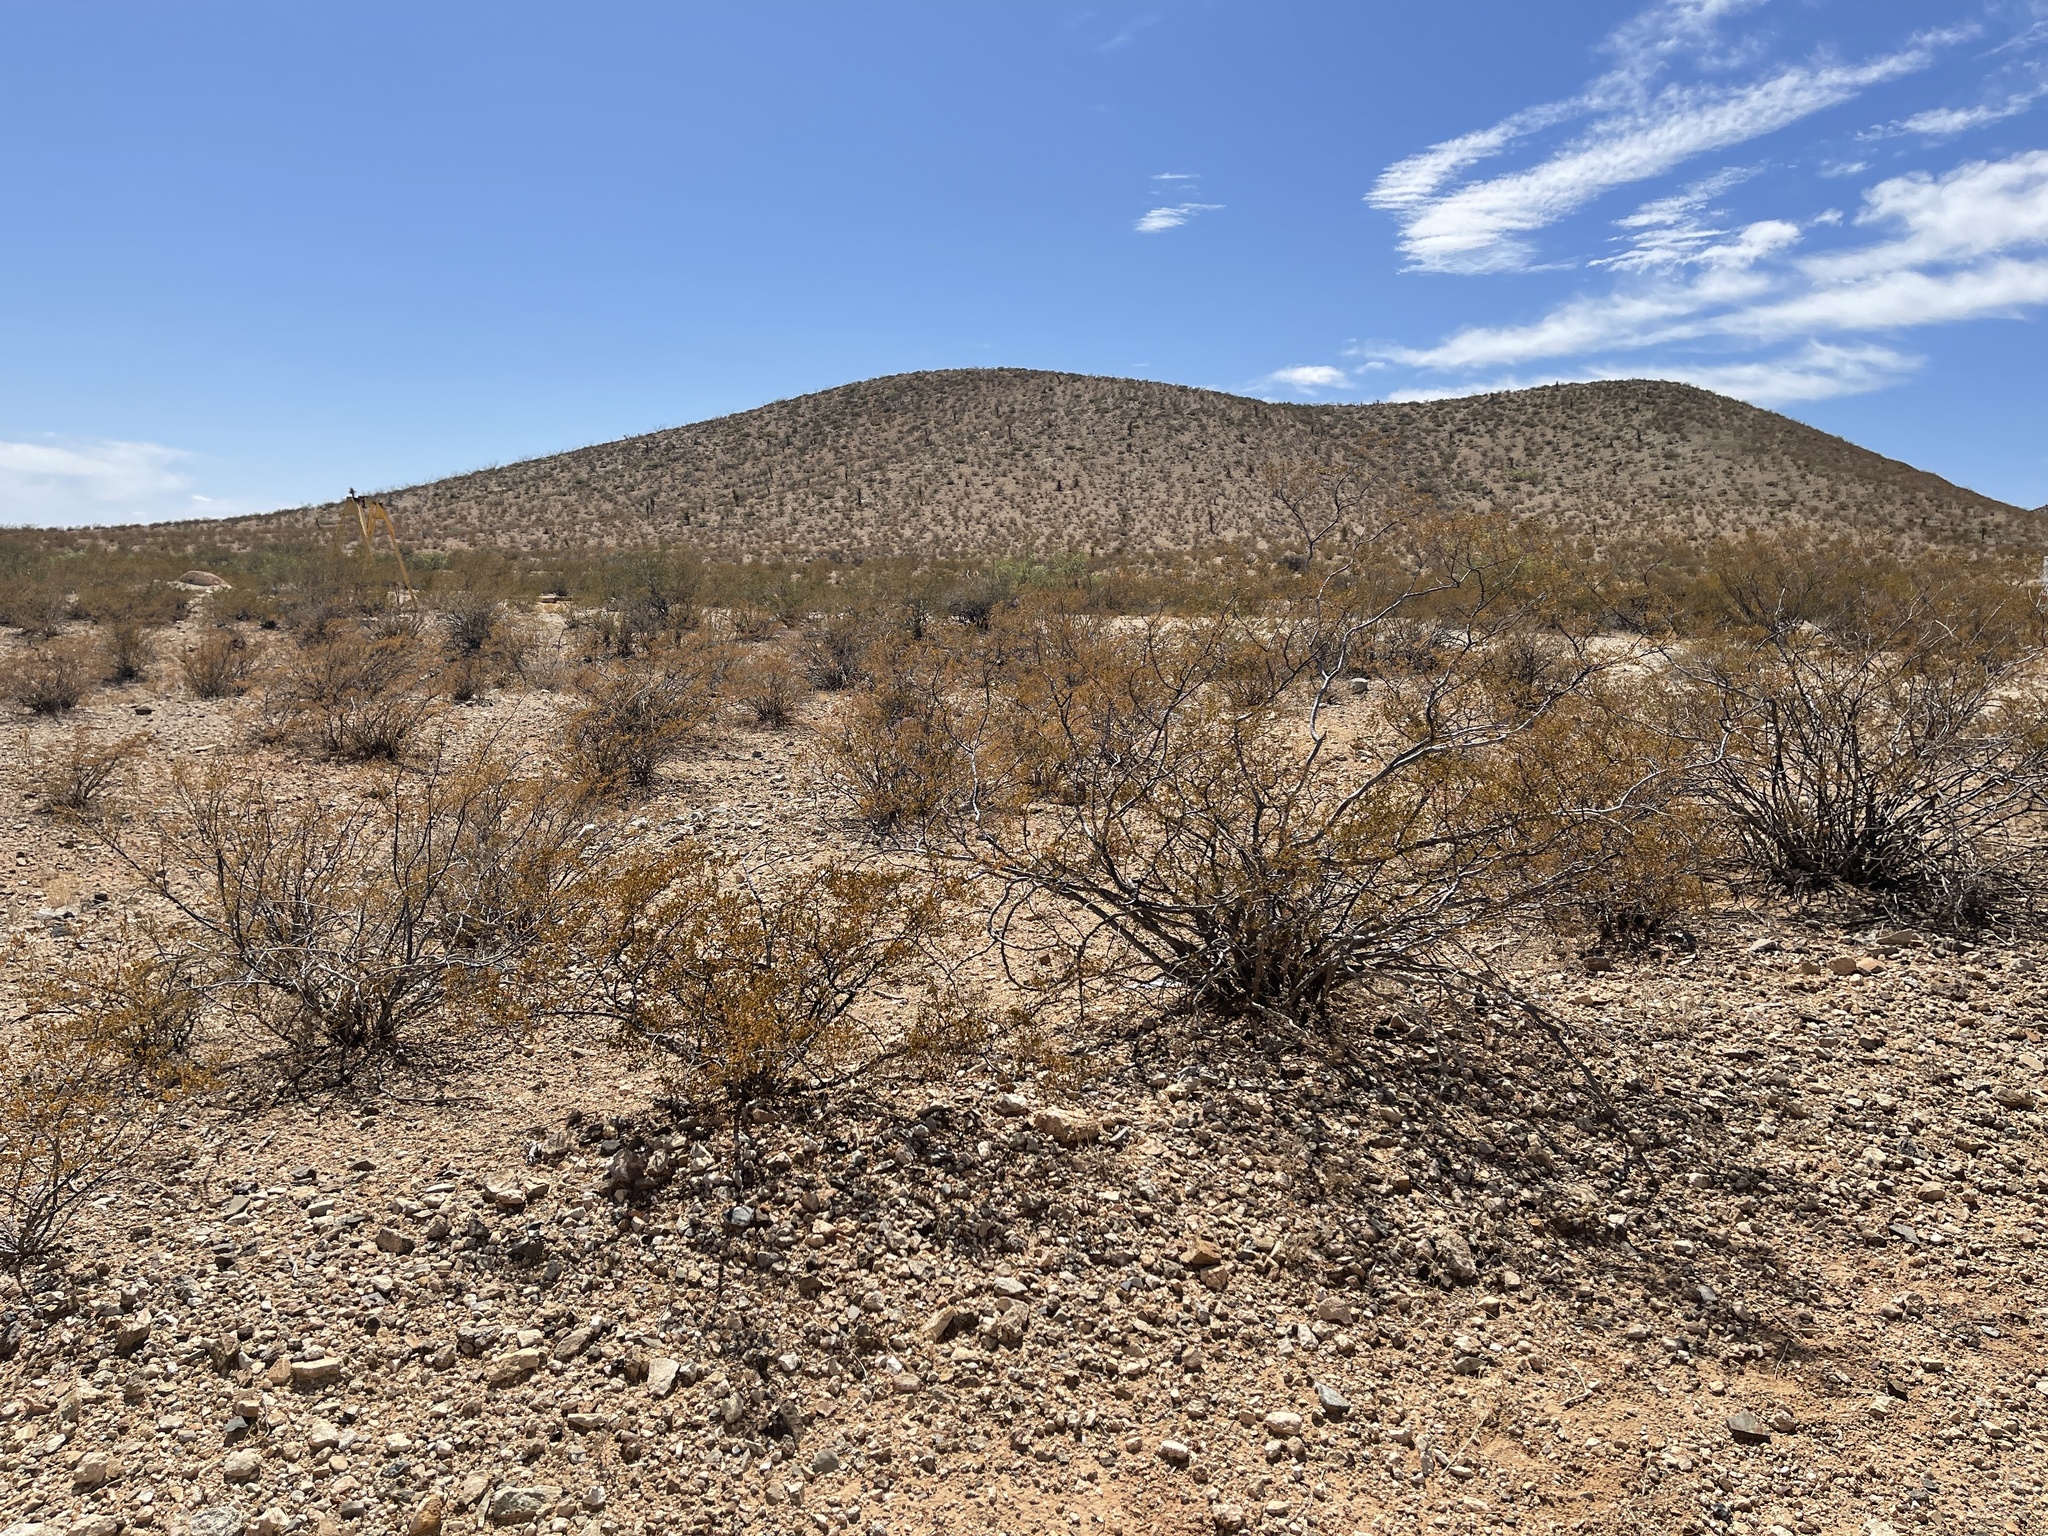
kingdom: Plantae
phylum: Tracheophyta
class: Magnoliopsida
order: Zygophyllales
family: Zygophyllaceae
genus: Larrea
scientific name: Larrea tridentata
